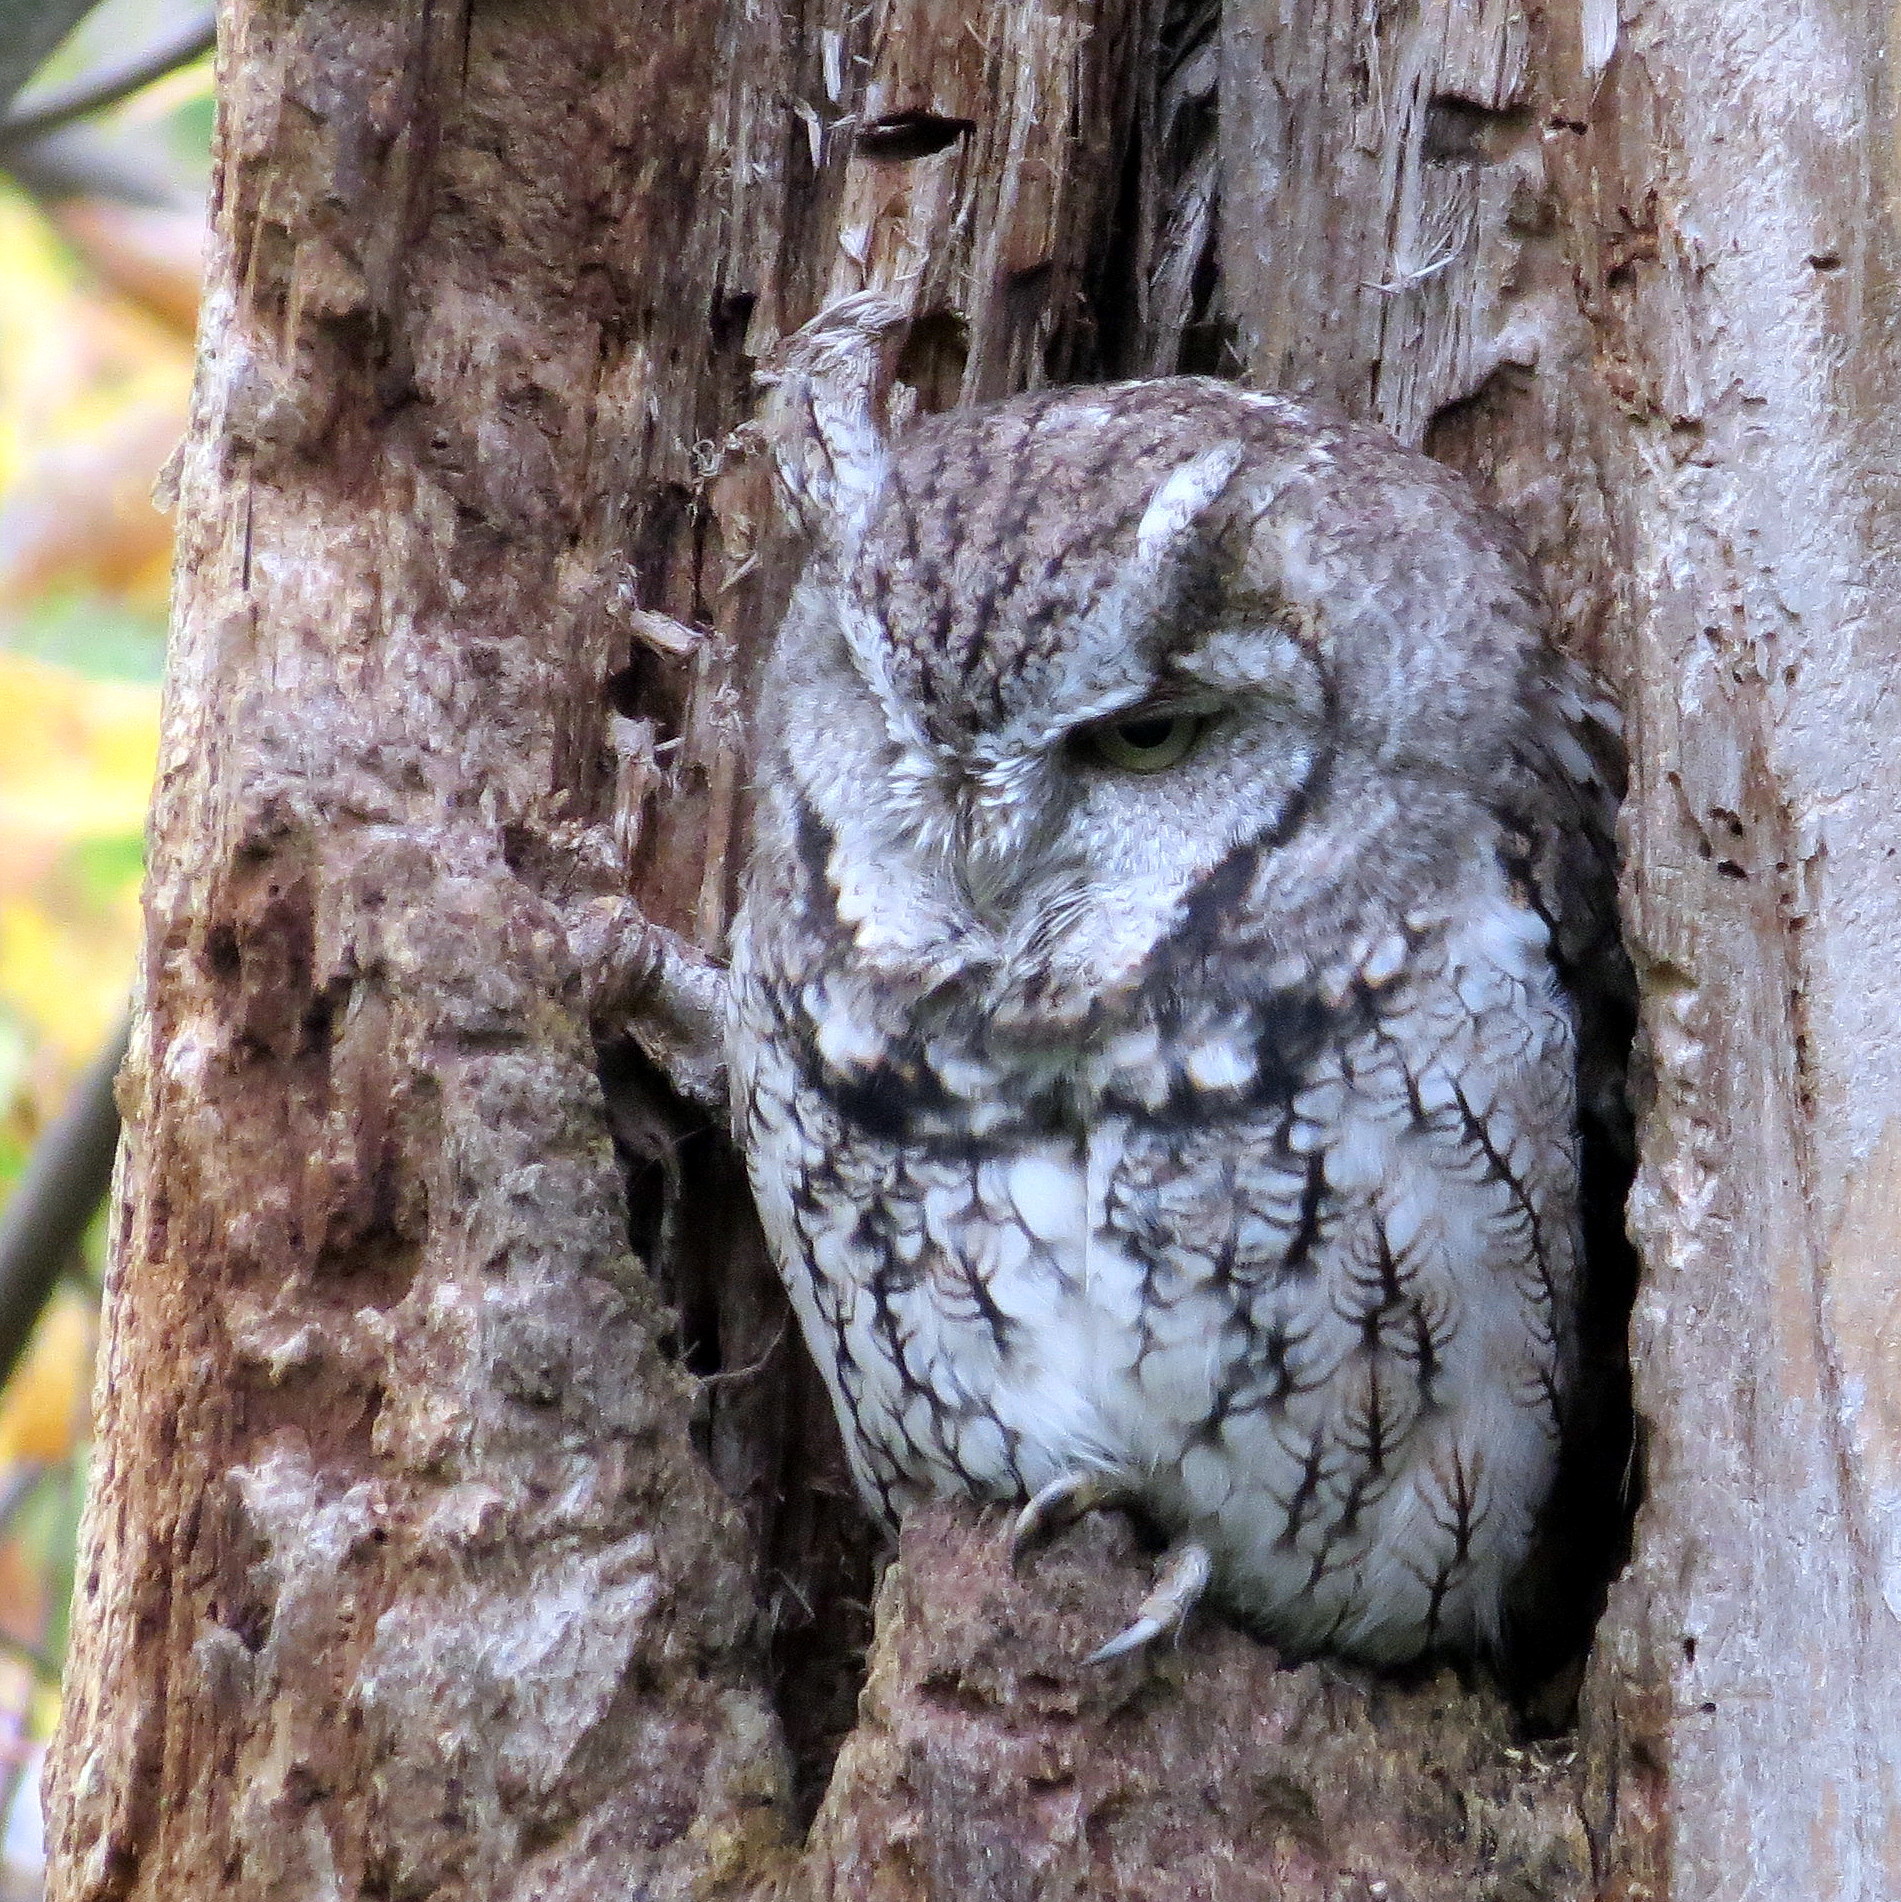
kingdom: Animalia
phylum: Chordata
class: Aves
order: Strigiformes
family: Strigidae
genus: Megascops
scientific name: Megascops asio
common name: Eastern screech-owl
